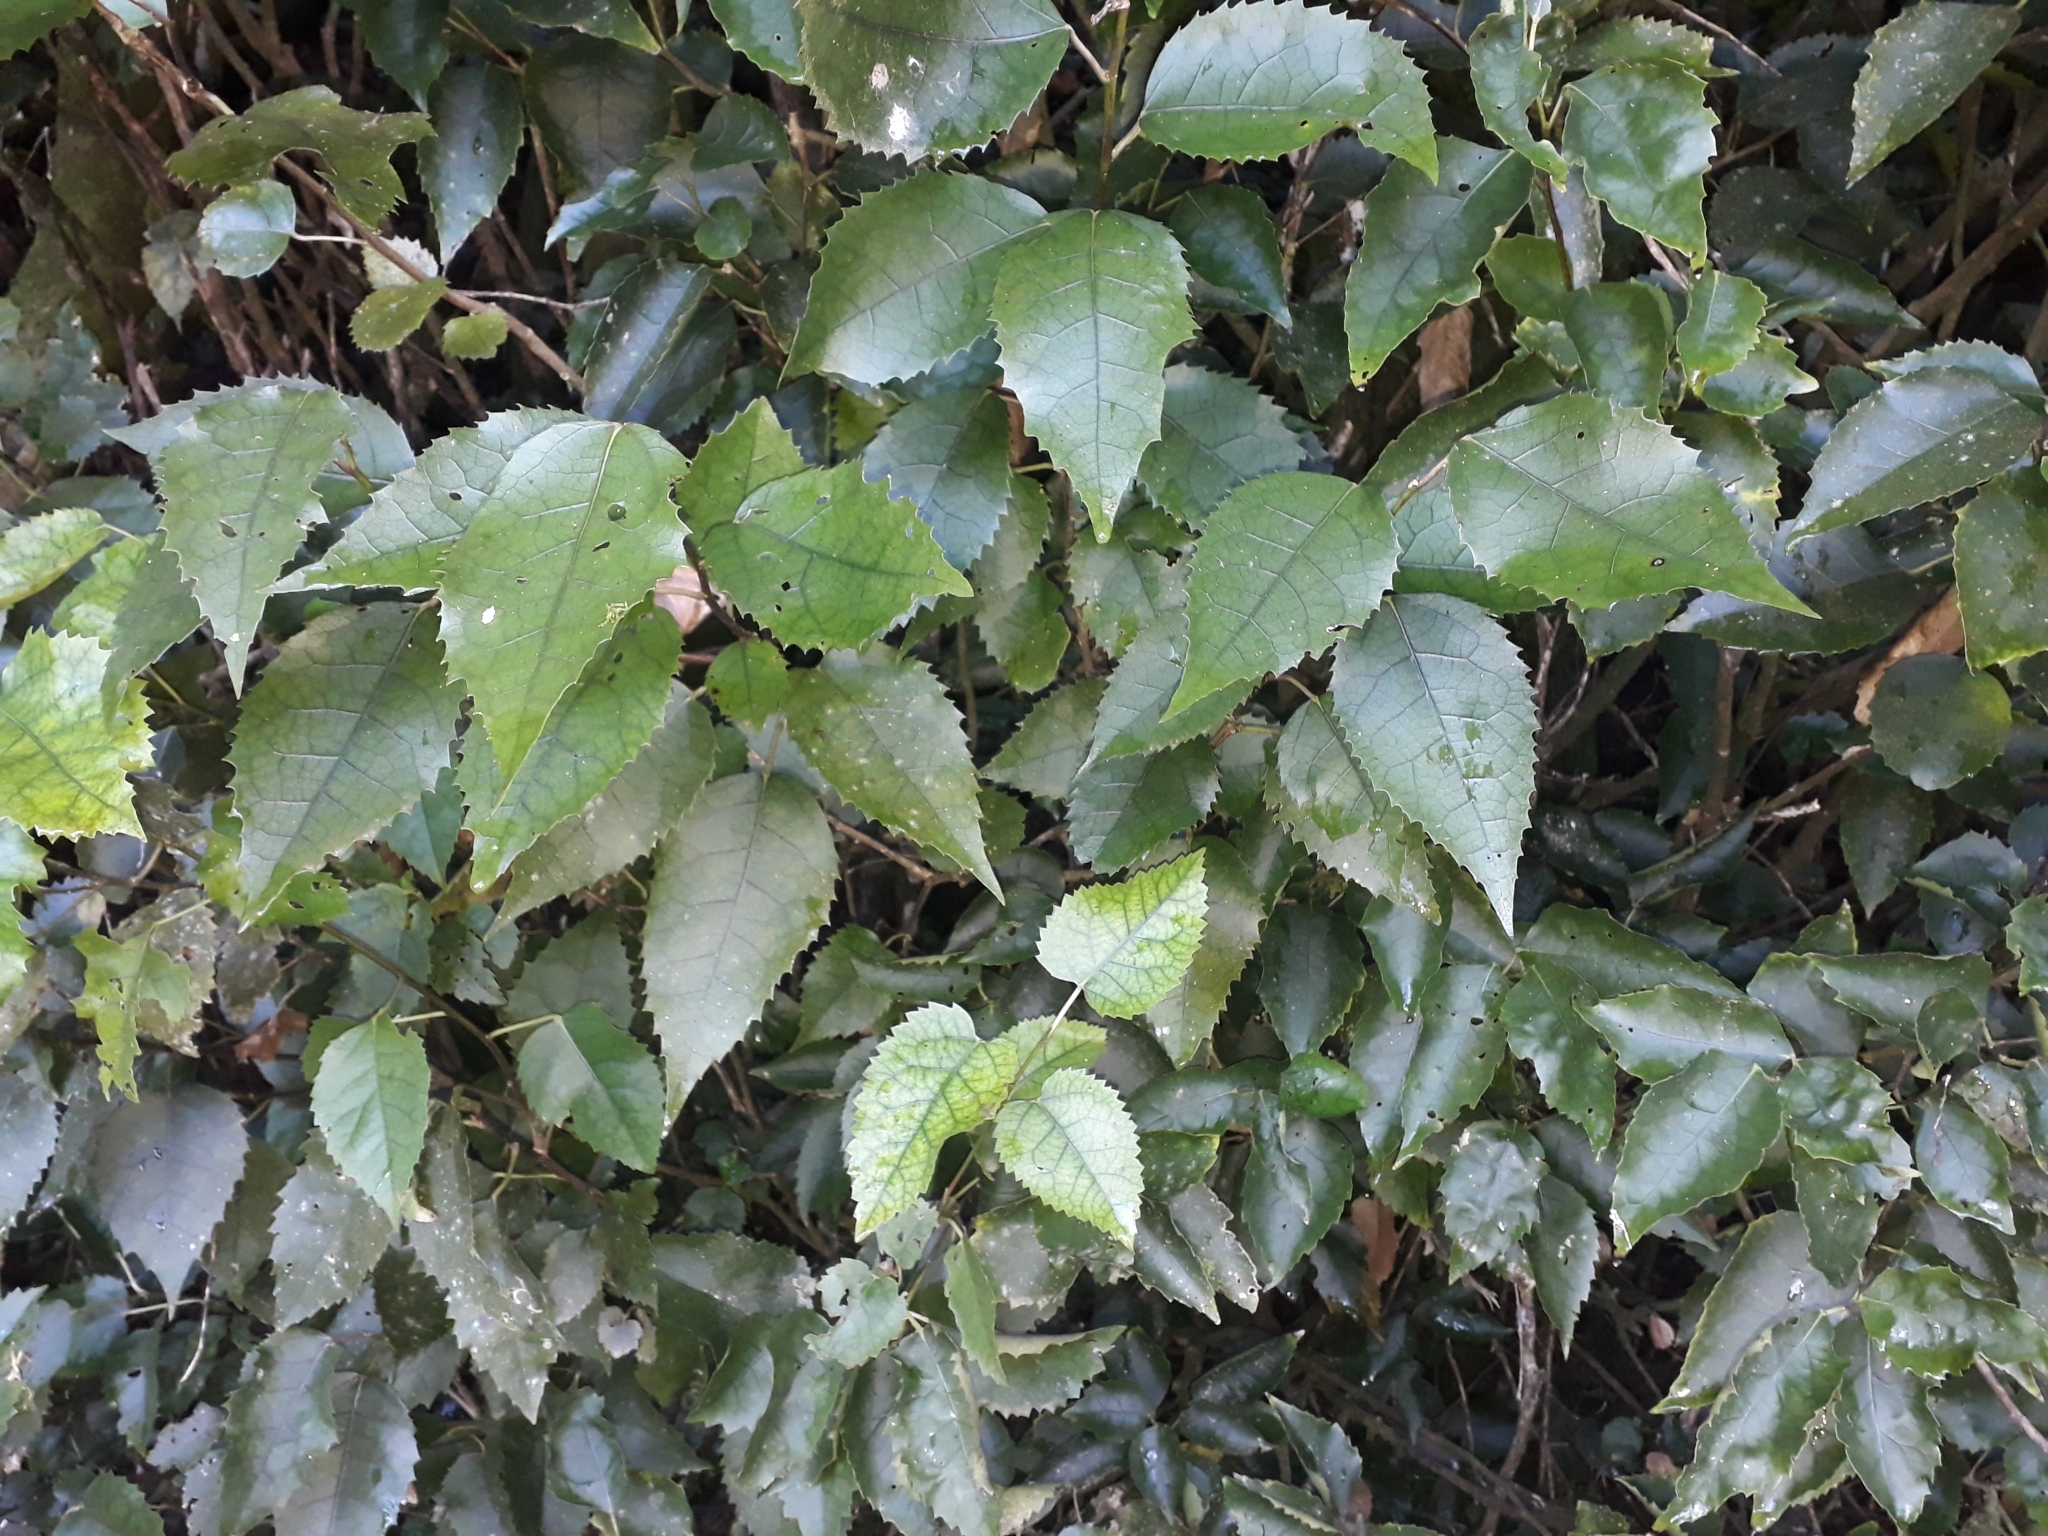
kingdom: Plantae
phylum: Tracheophyta
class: Magnoliopsida
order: Malvales
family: Malvaceae
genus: Hoheria
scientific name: Hoheria populnea
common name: Lacebark
